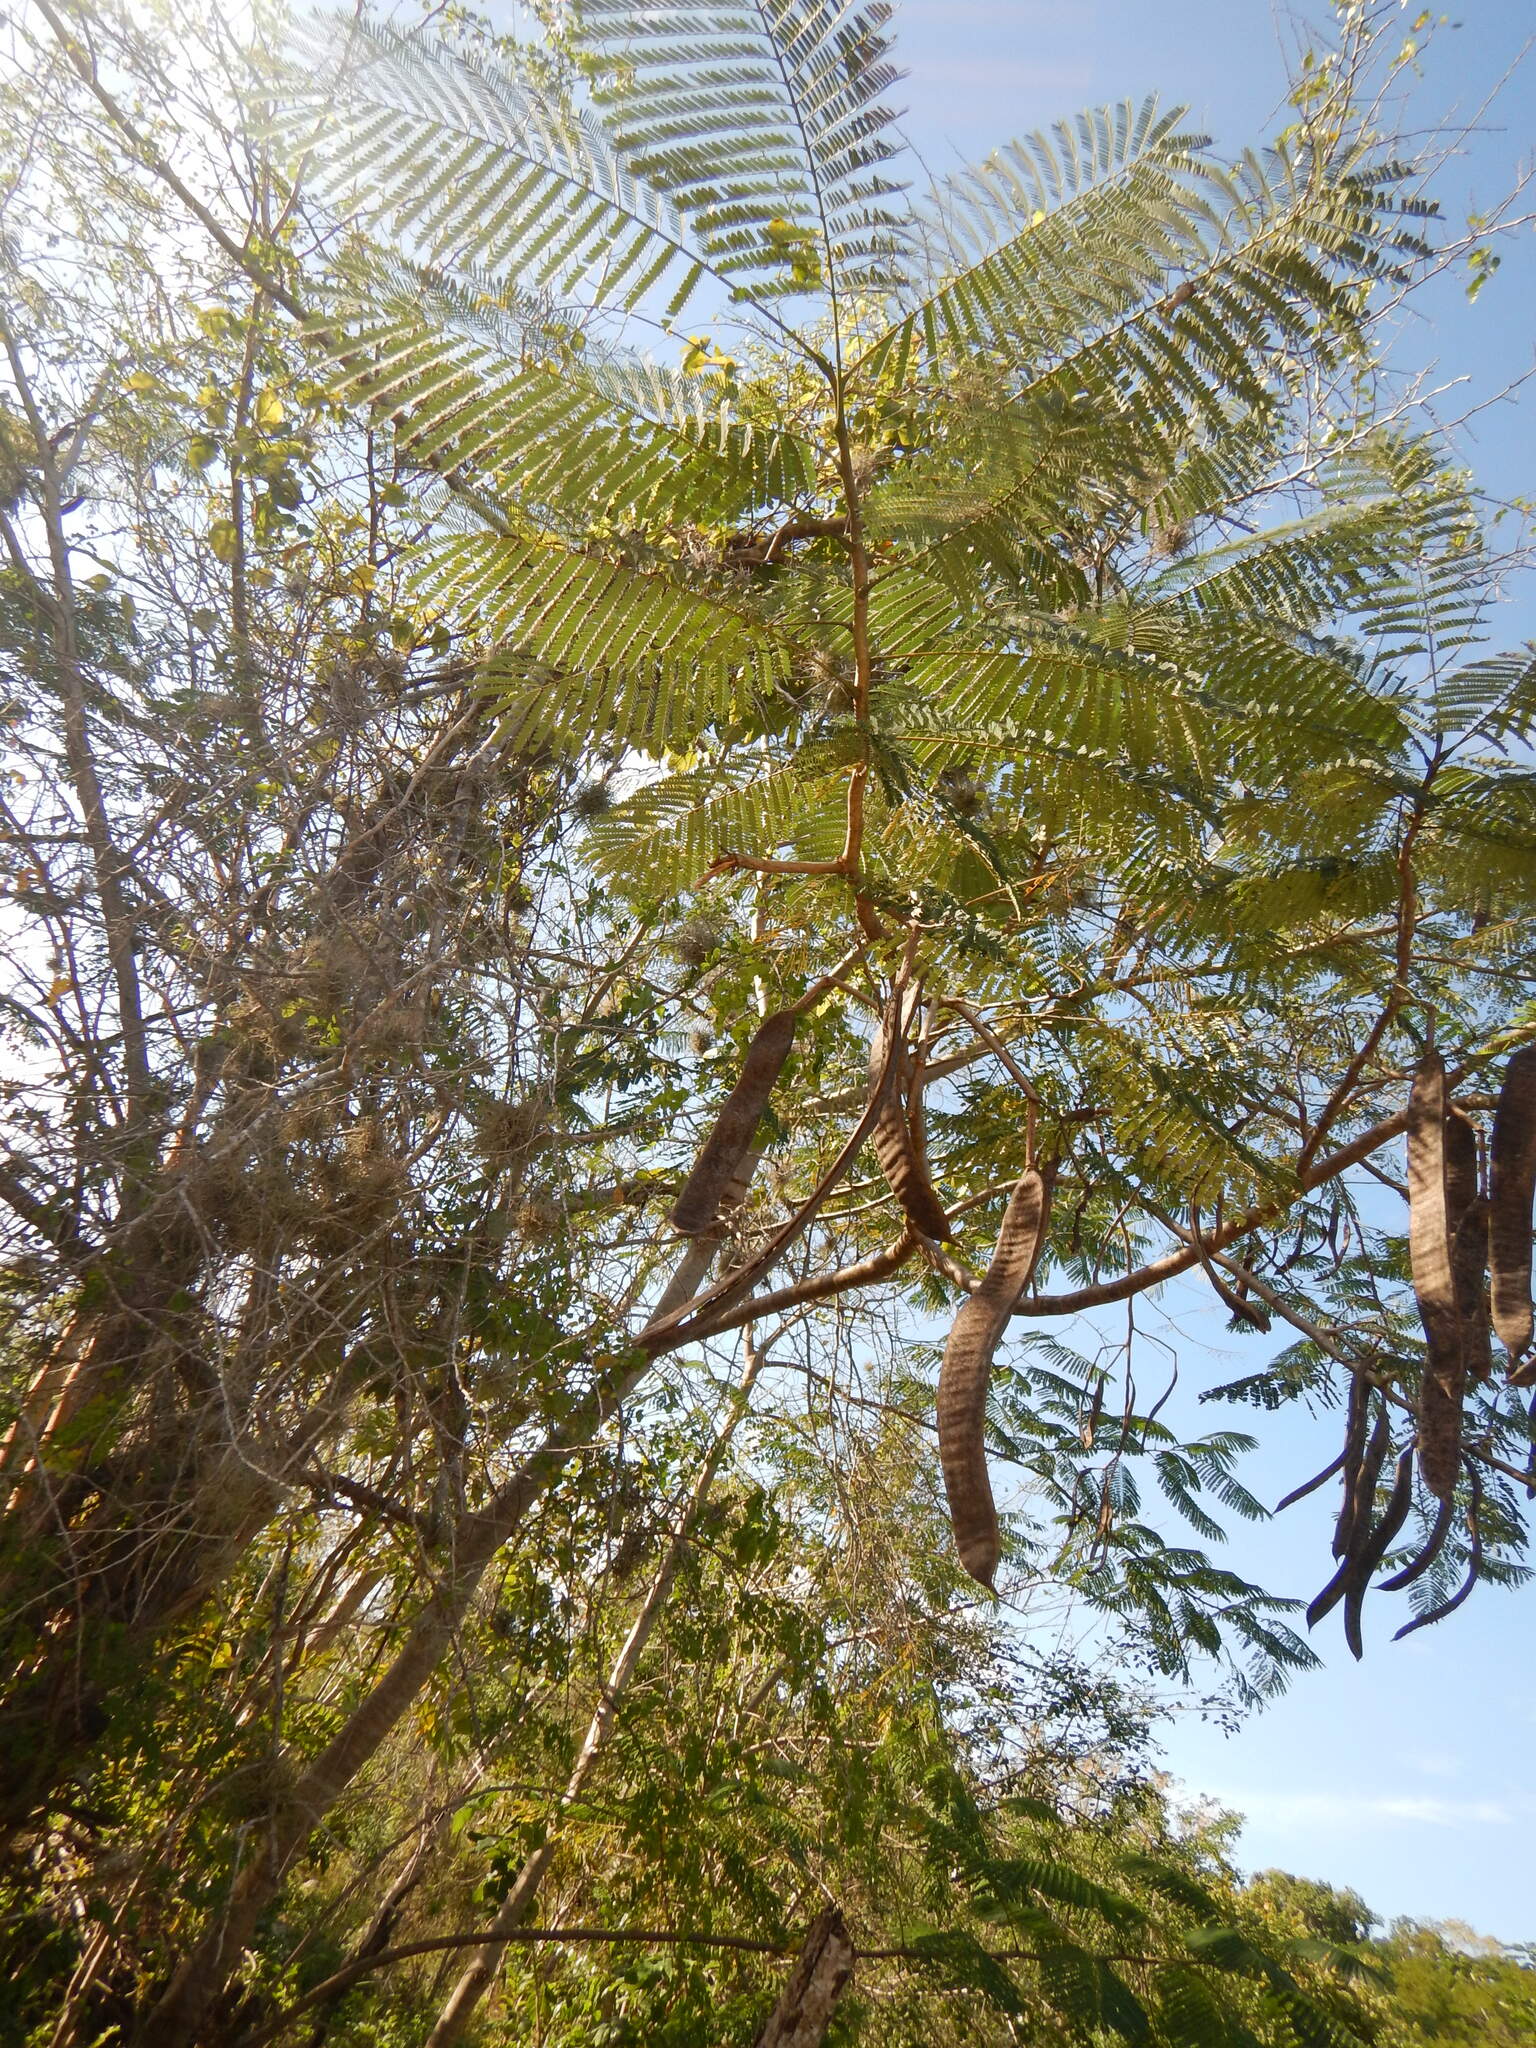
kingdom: Plantae
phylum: Tracheophyta
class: Magnoliopsida
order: Fabales
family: Fabaceae
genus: Delonix
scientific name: Delonix regia
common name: Royal poinciana
